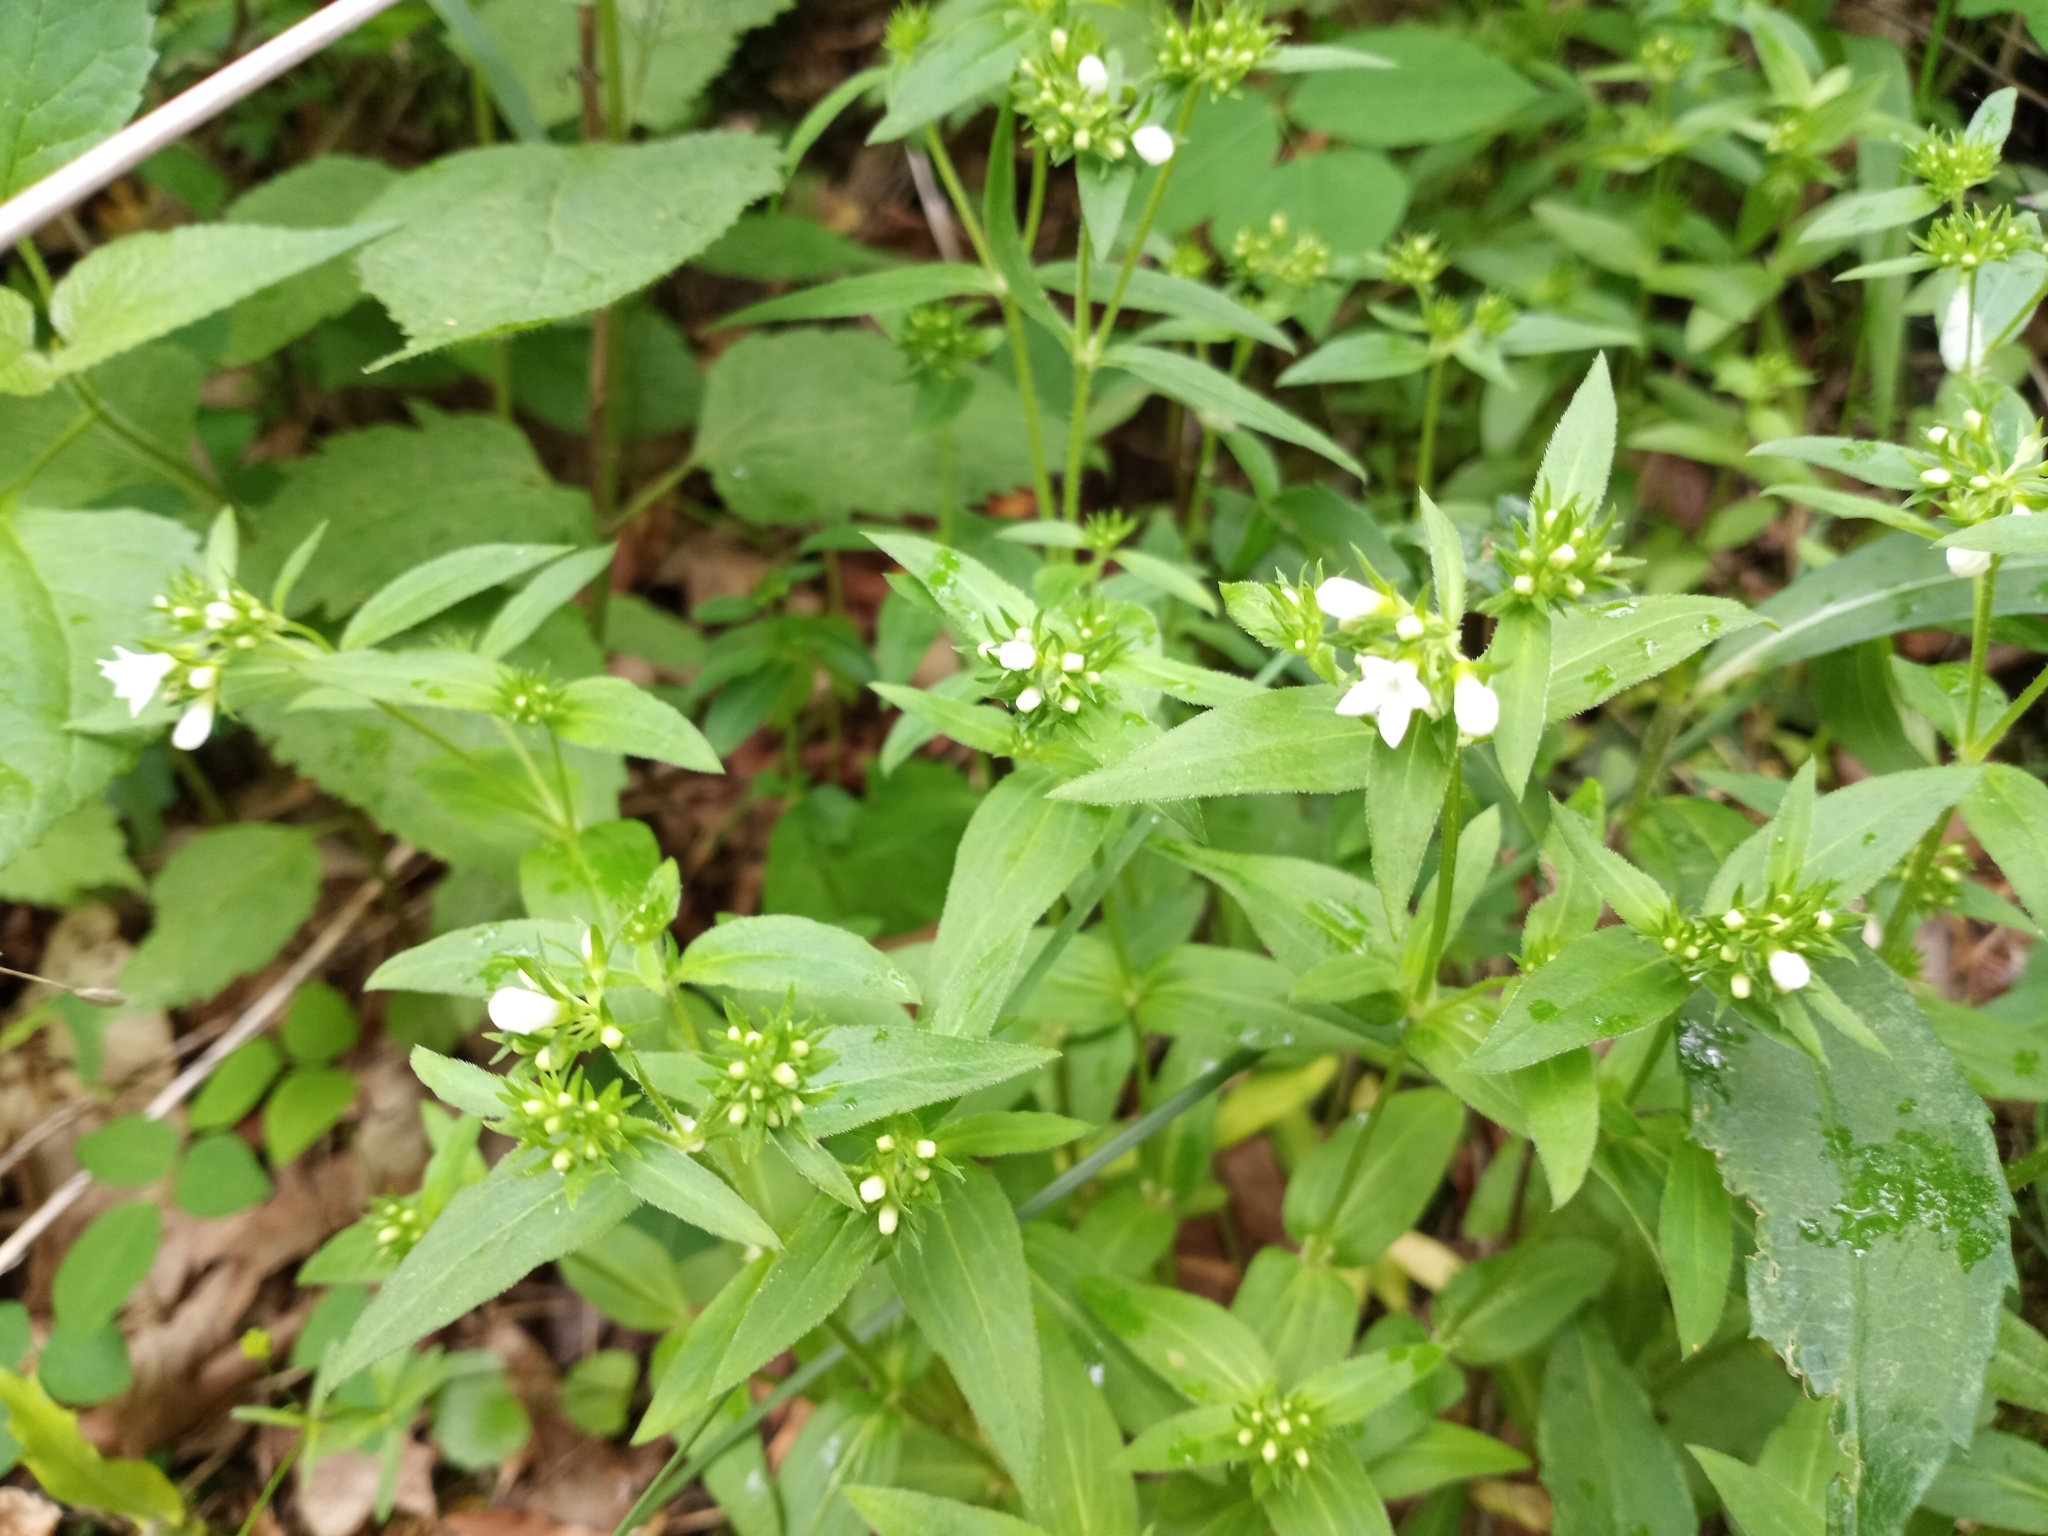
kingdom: Plantae
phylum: Tracheophyta
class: Magnoliopsida
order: Gentianales
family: Rubiaceae
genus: Houstonia
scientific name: Houstonia purpurea
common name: Summer bluet
